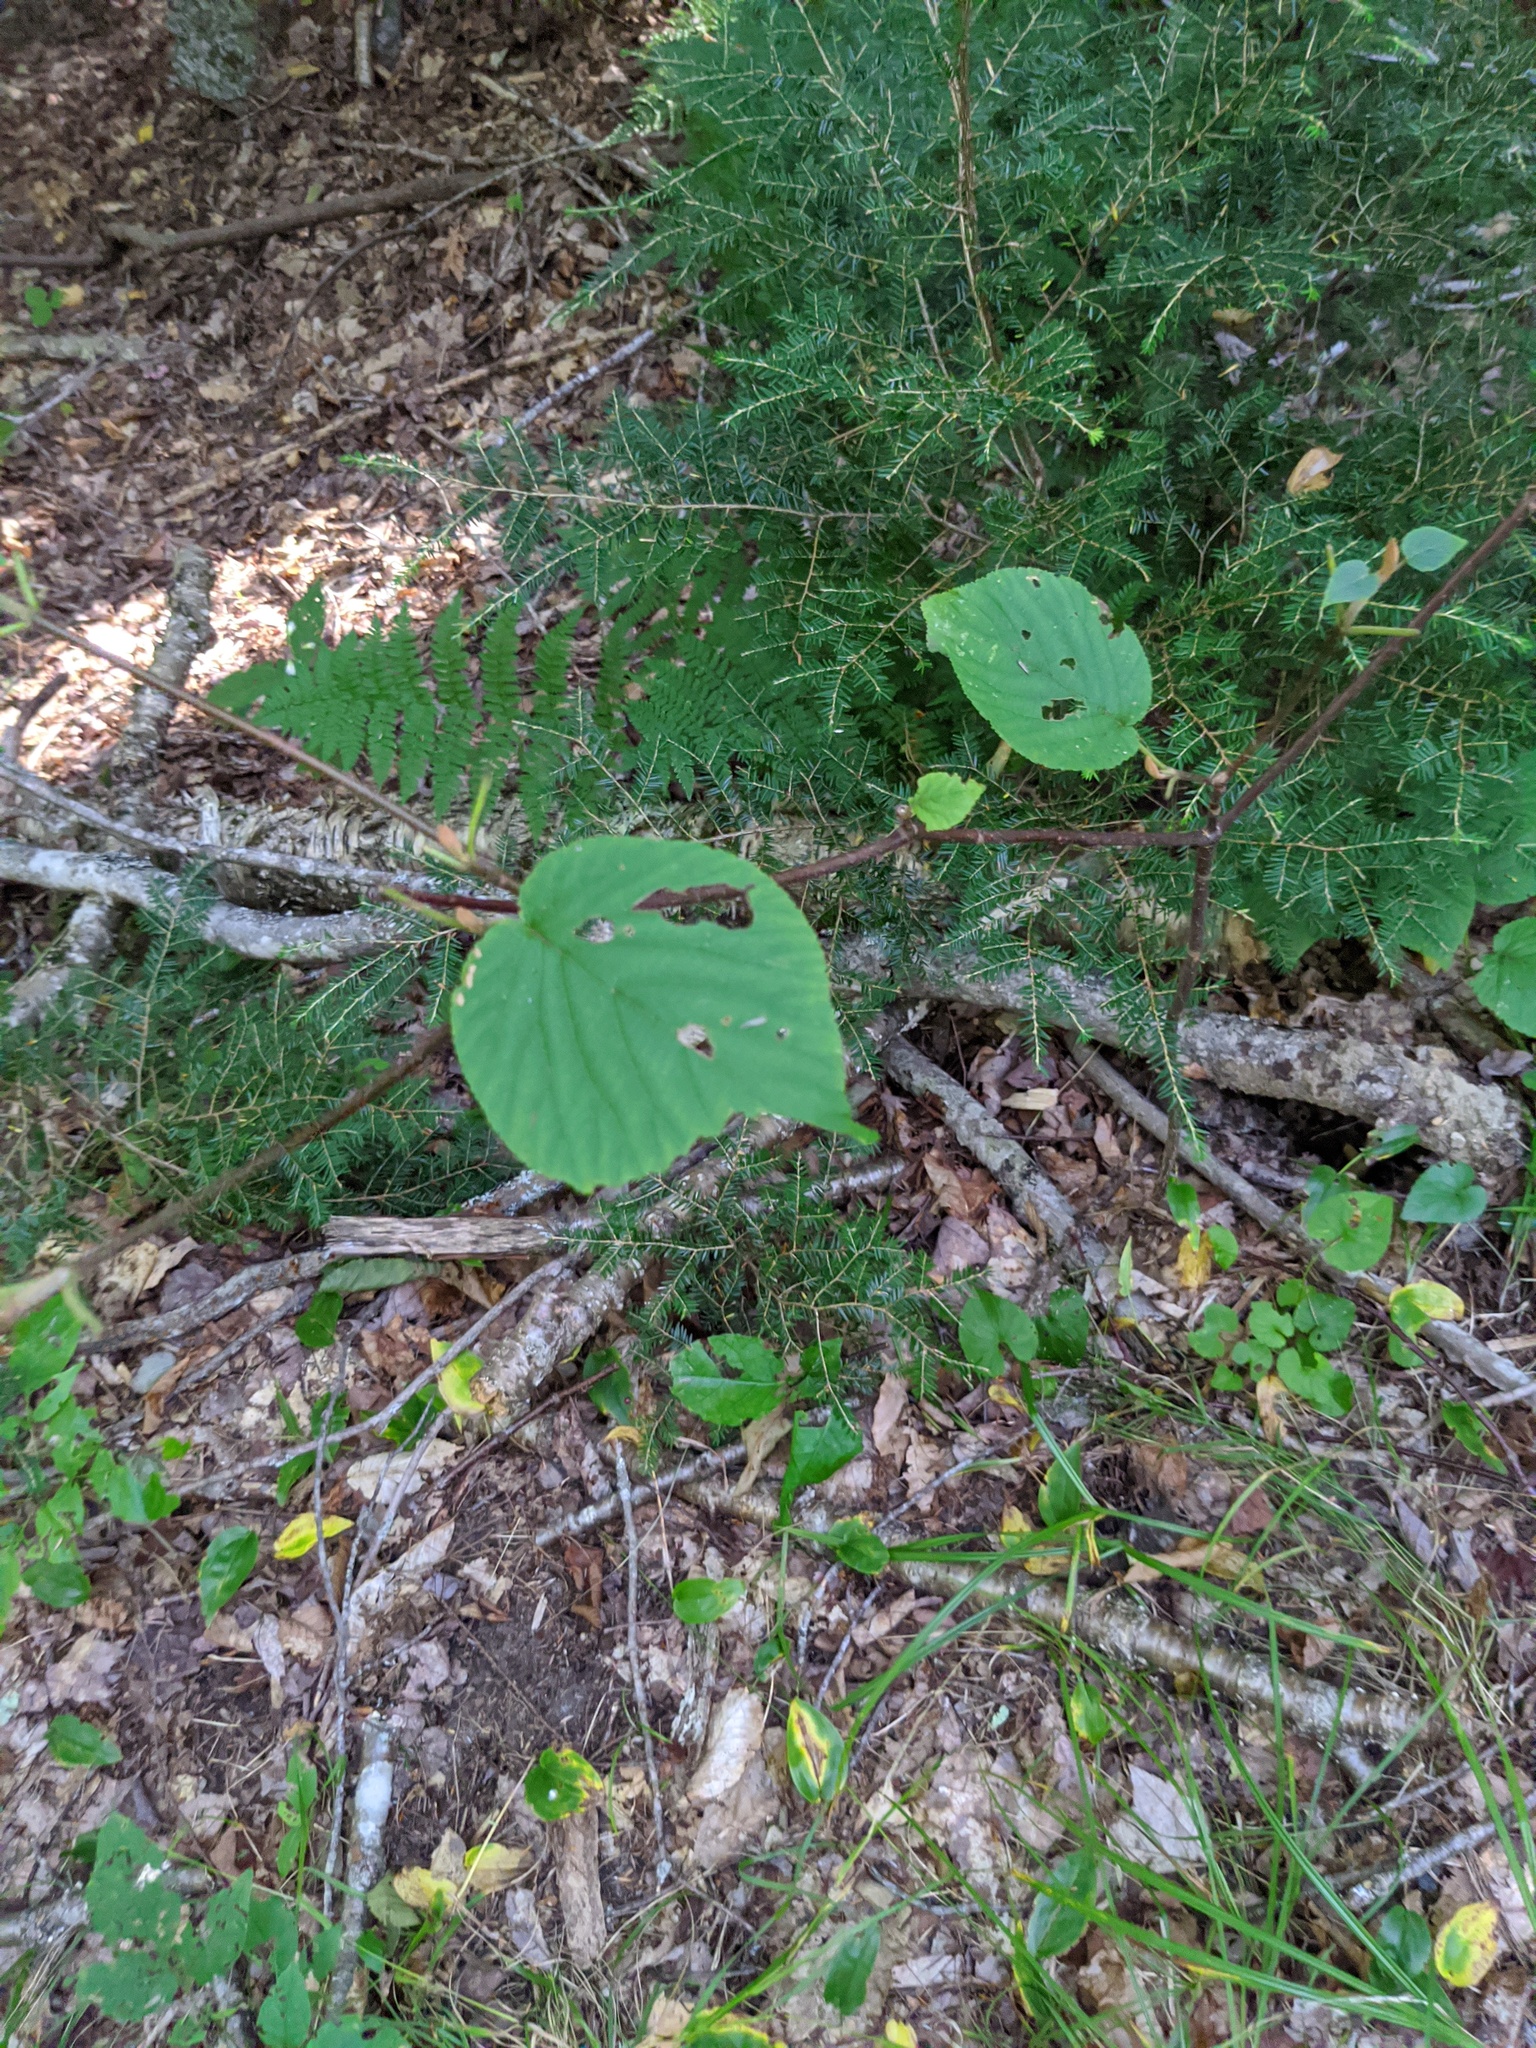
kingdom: Plantae
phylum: Tracheophyta
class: Liliopsida
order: Asparagales
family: Asparagaceae
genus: Maianthemum
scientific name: Maianthemum canadense
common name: False lily-of-the-valley
